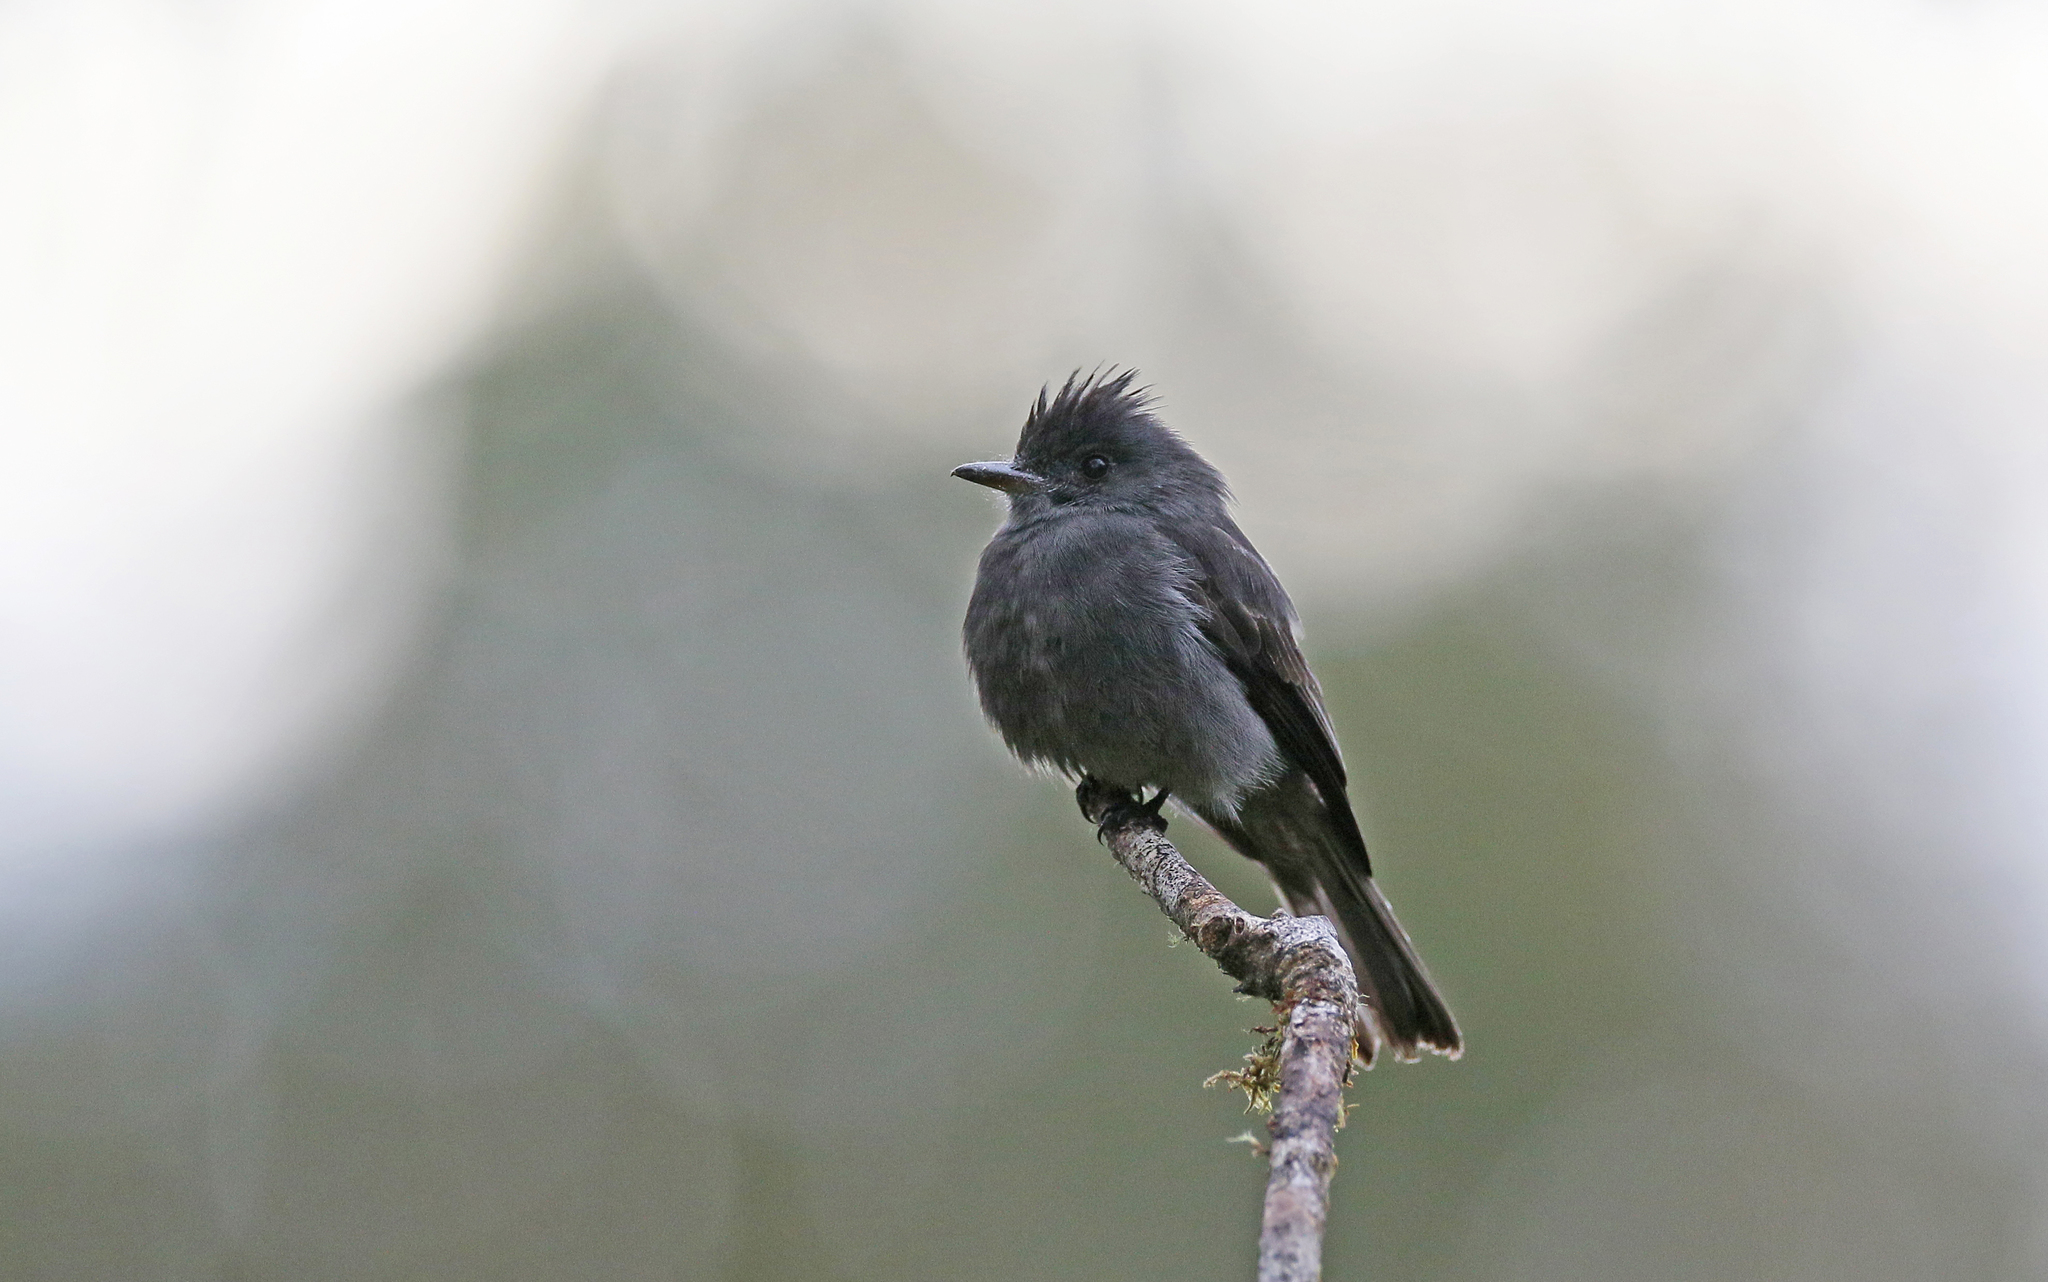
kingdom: Animalia
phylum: Chordata
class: Aves
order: Passeriformes
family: Tyrannidae
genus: Contopus
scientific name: Contopus fumigatus
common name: Smoke-colored pewee
